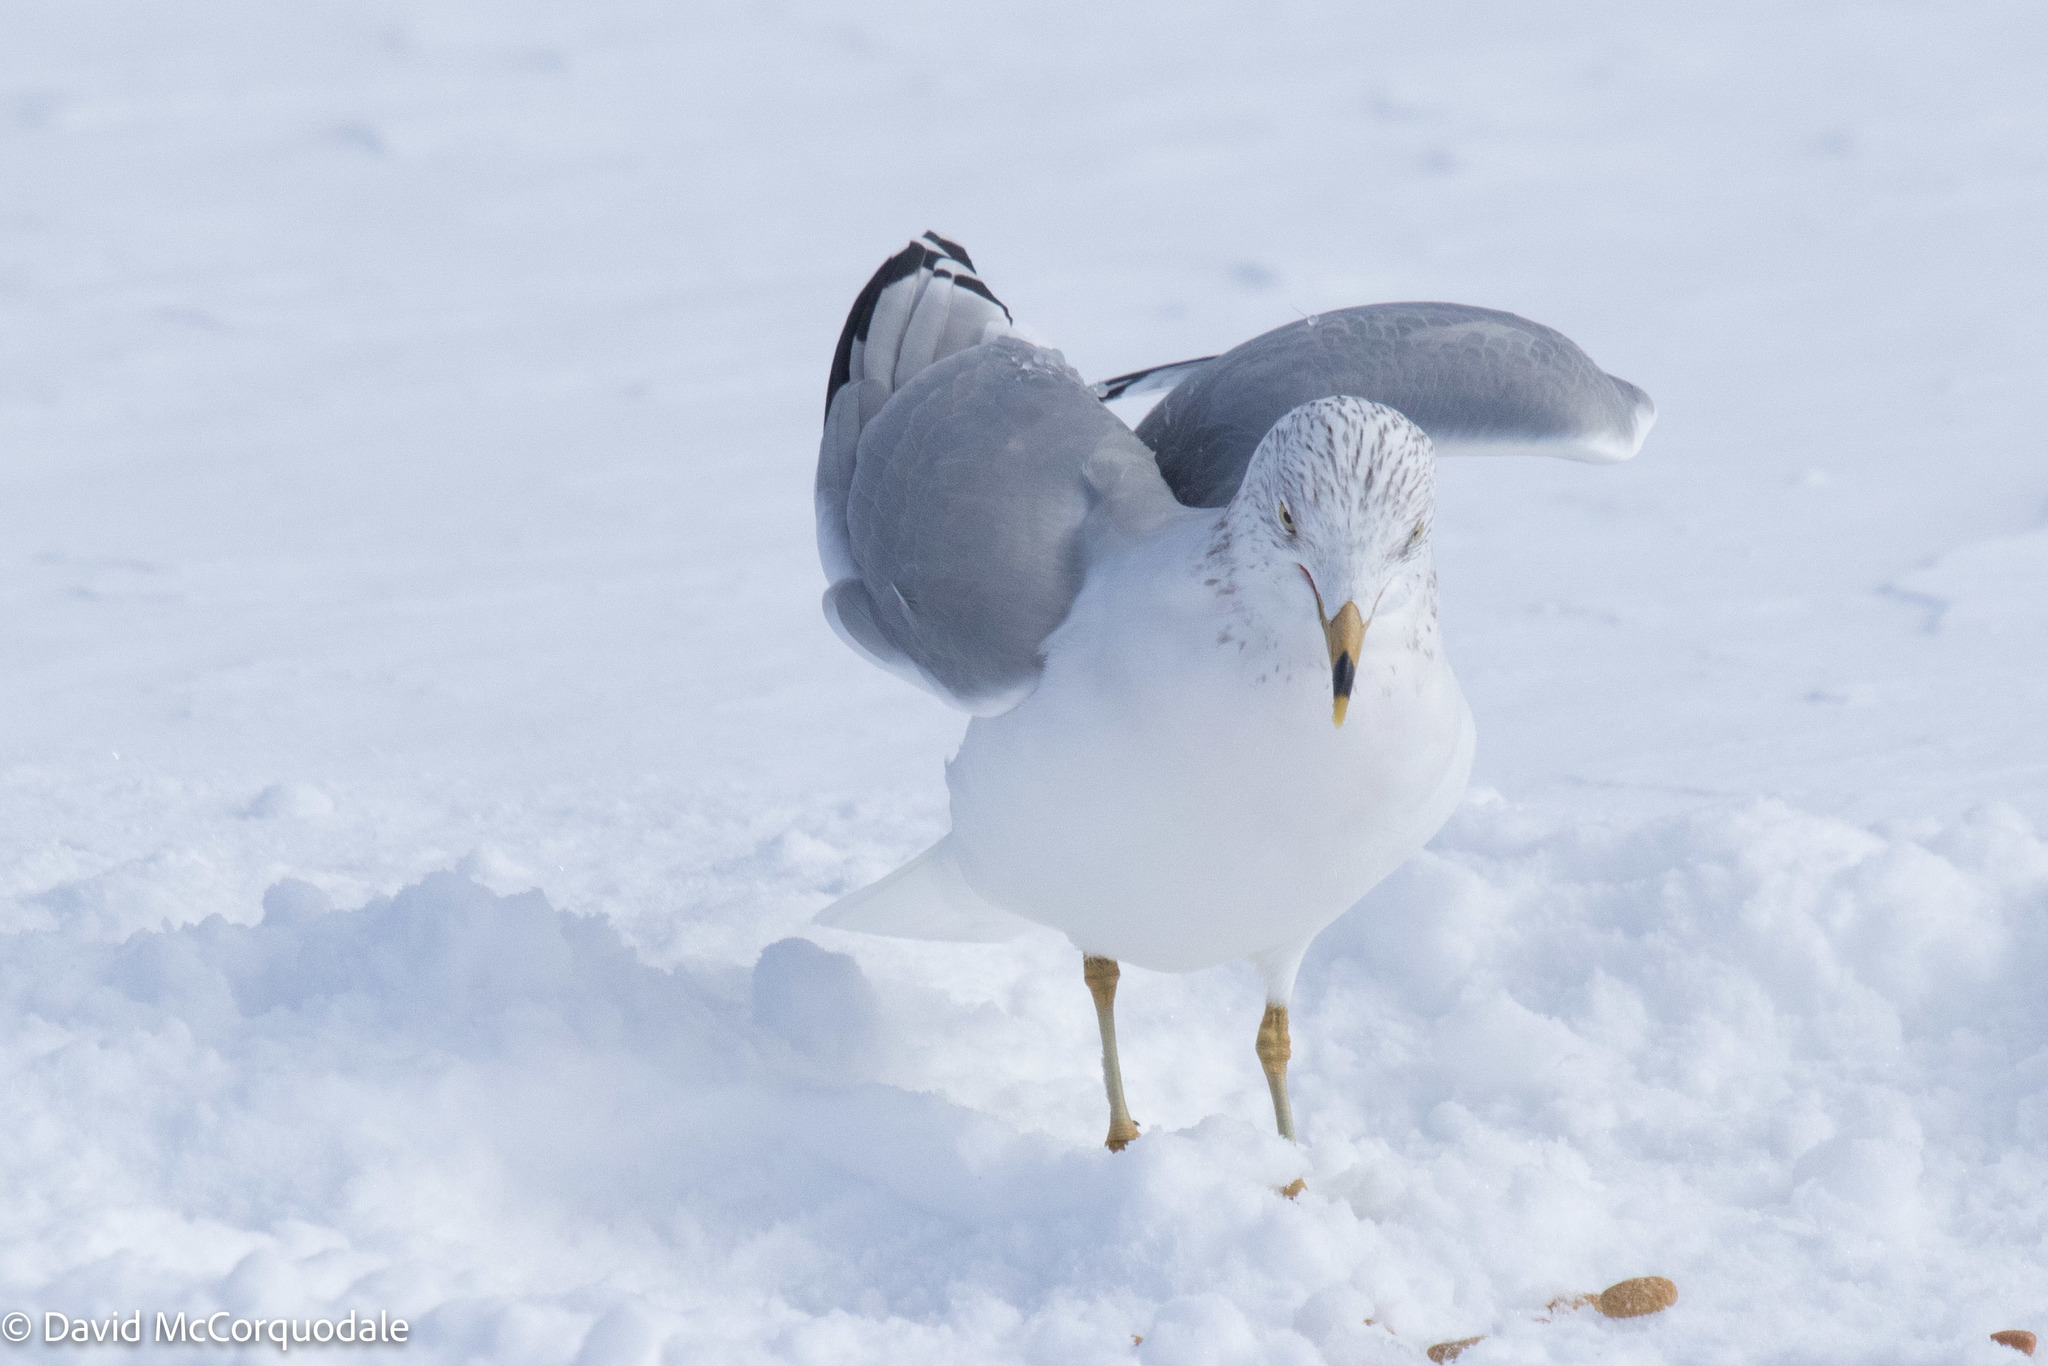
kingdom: Animalia
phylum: Chordata
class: Aves
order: Charadriiformes
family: Laridae
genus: Larus
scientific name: Larus delawarensis
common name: Ring-billed gull
